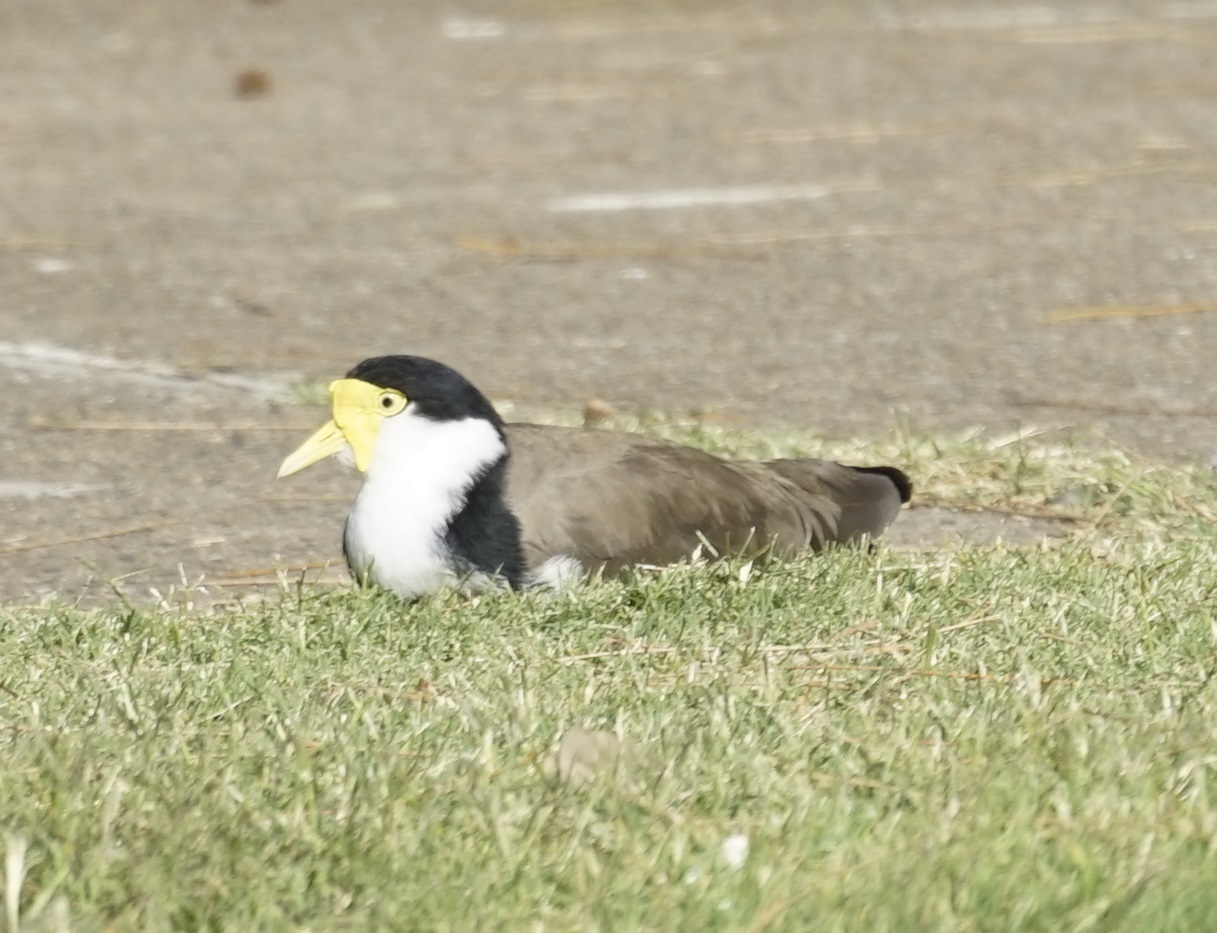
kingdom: Animalia
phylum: Chordata
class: Aves
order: Charadriiformes
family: Charadriidae
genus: Vanellus
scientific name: Vanellus miles
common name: Masked lapwing
